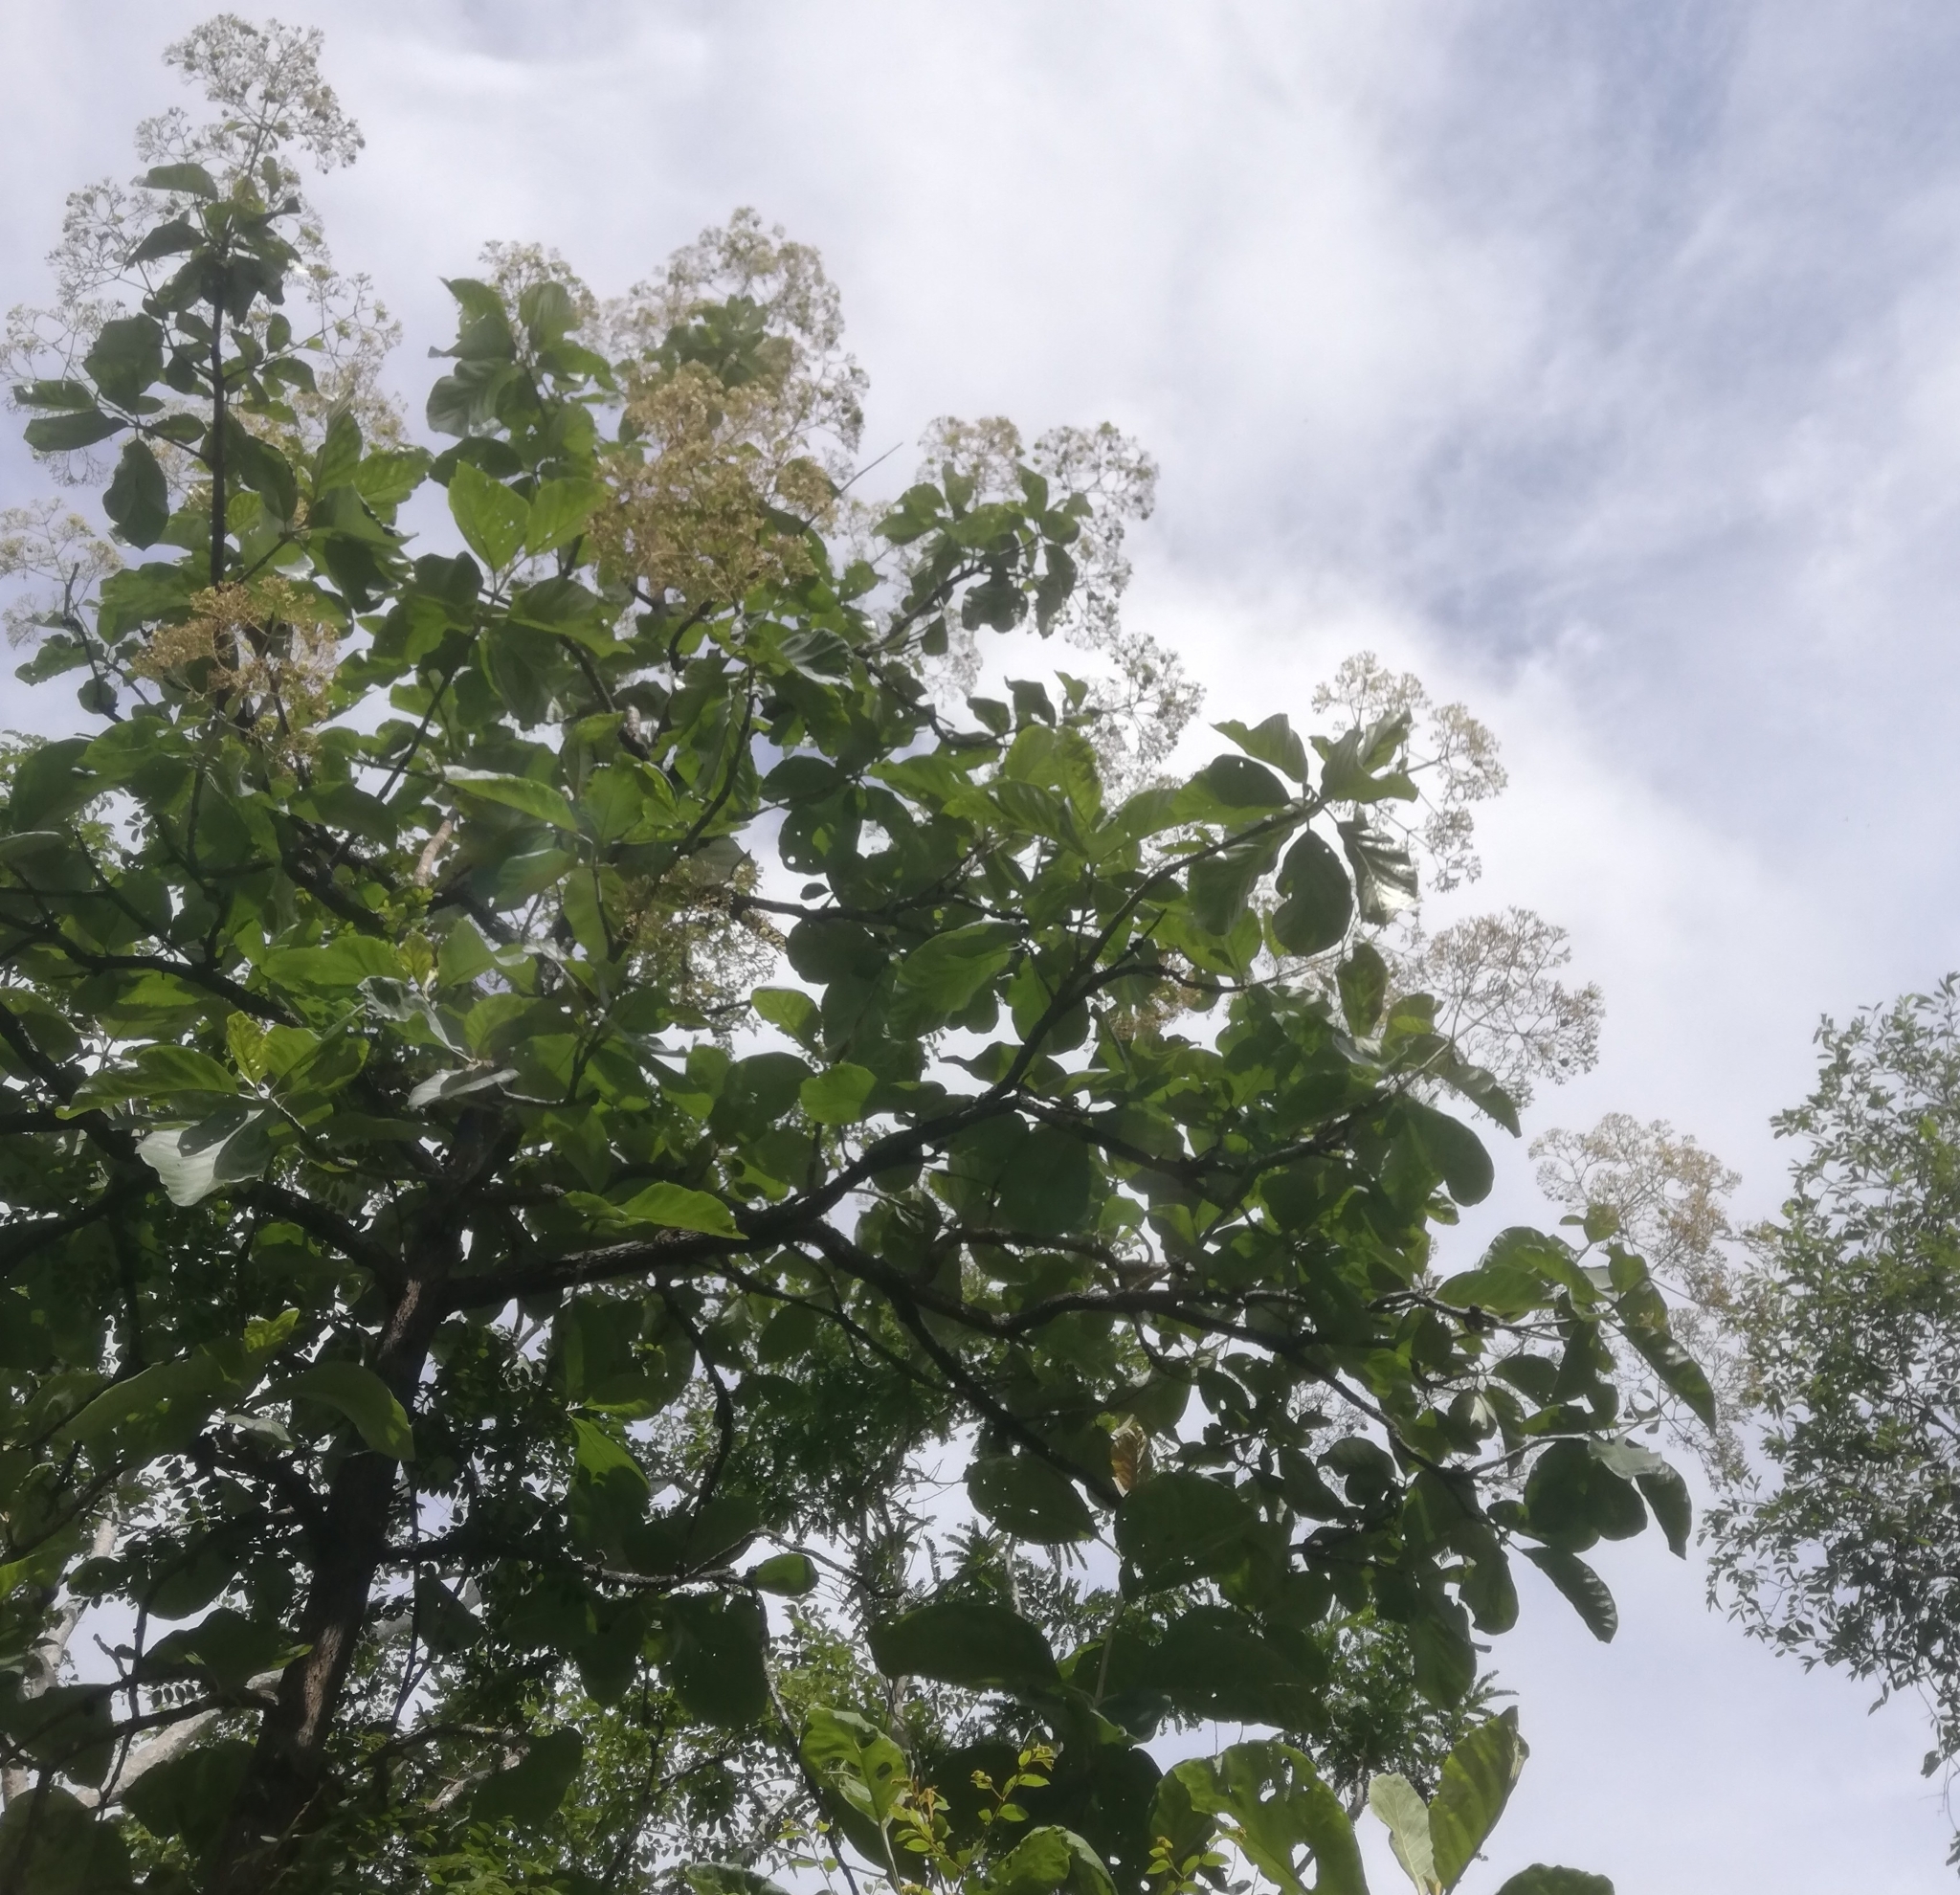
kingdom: Plantae
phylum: Tracheophyta
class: Magnoliopsida
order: Lamiales
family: Lamiaceae
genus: Tectona
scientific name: Tectona grandis
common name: Teak
